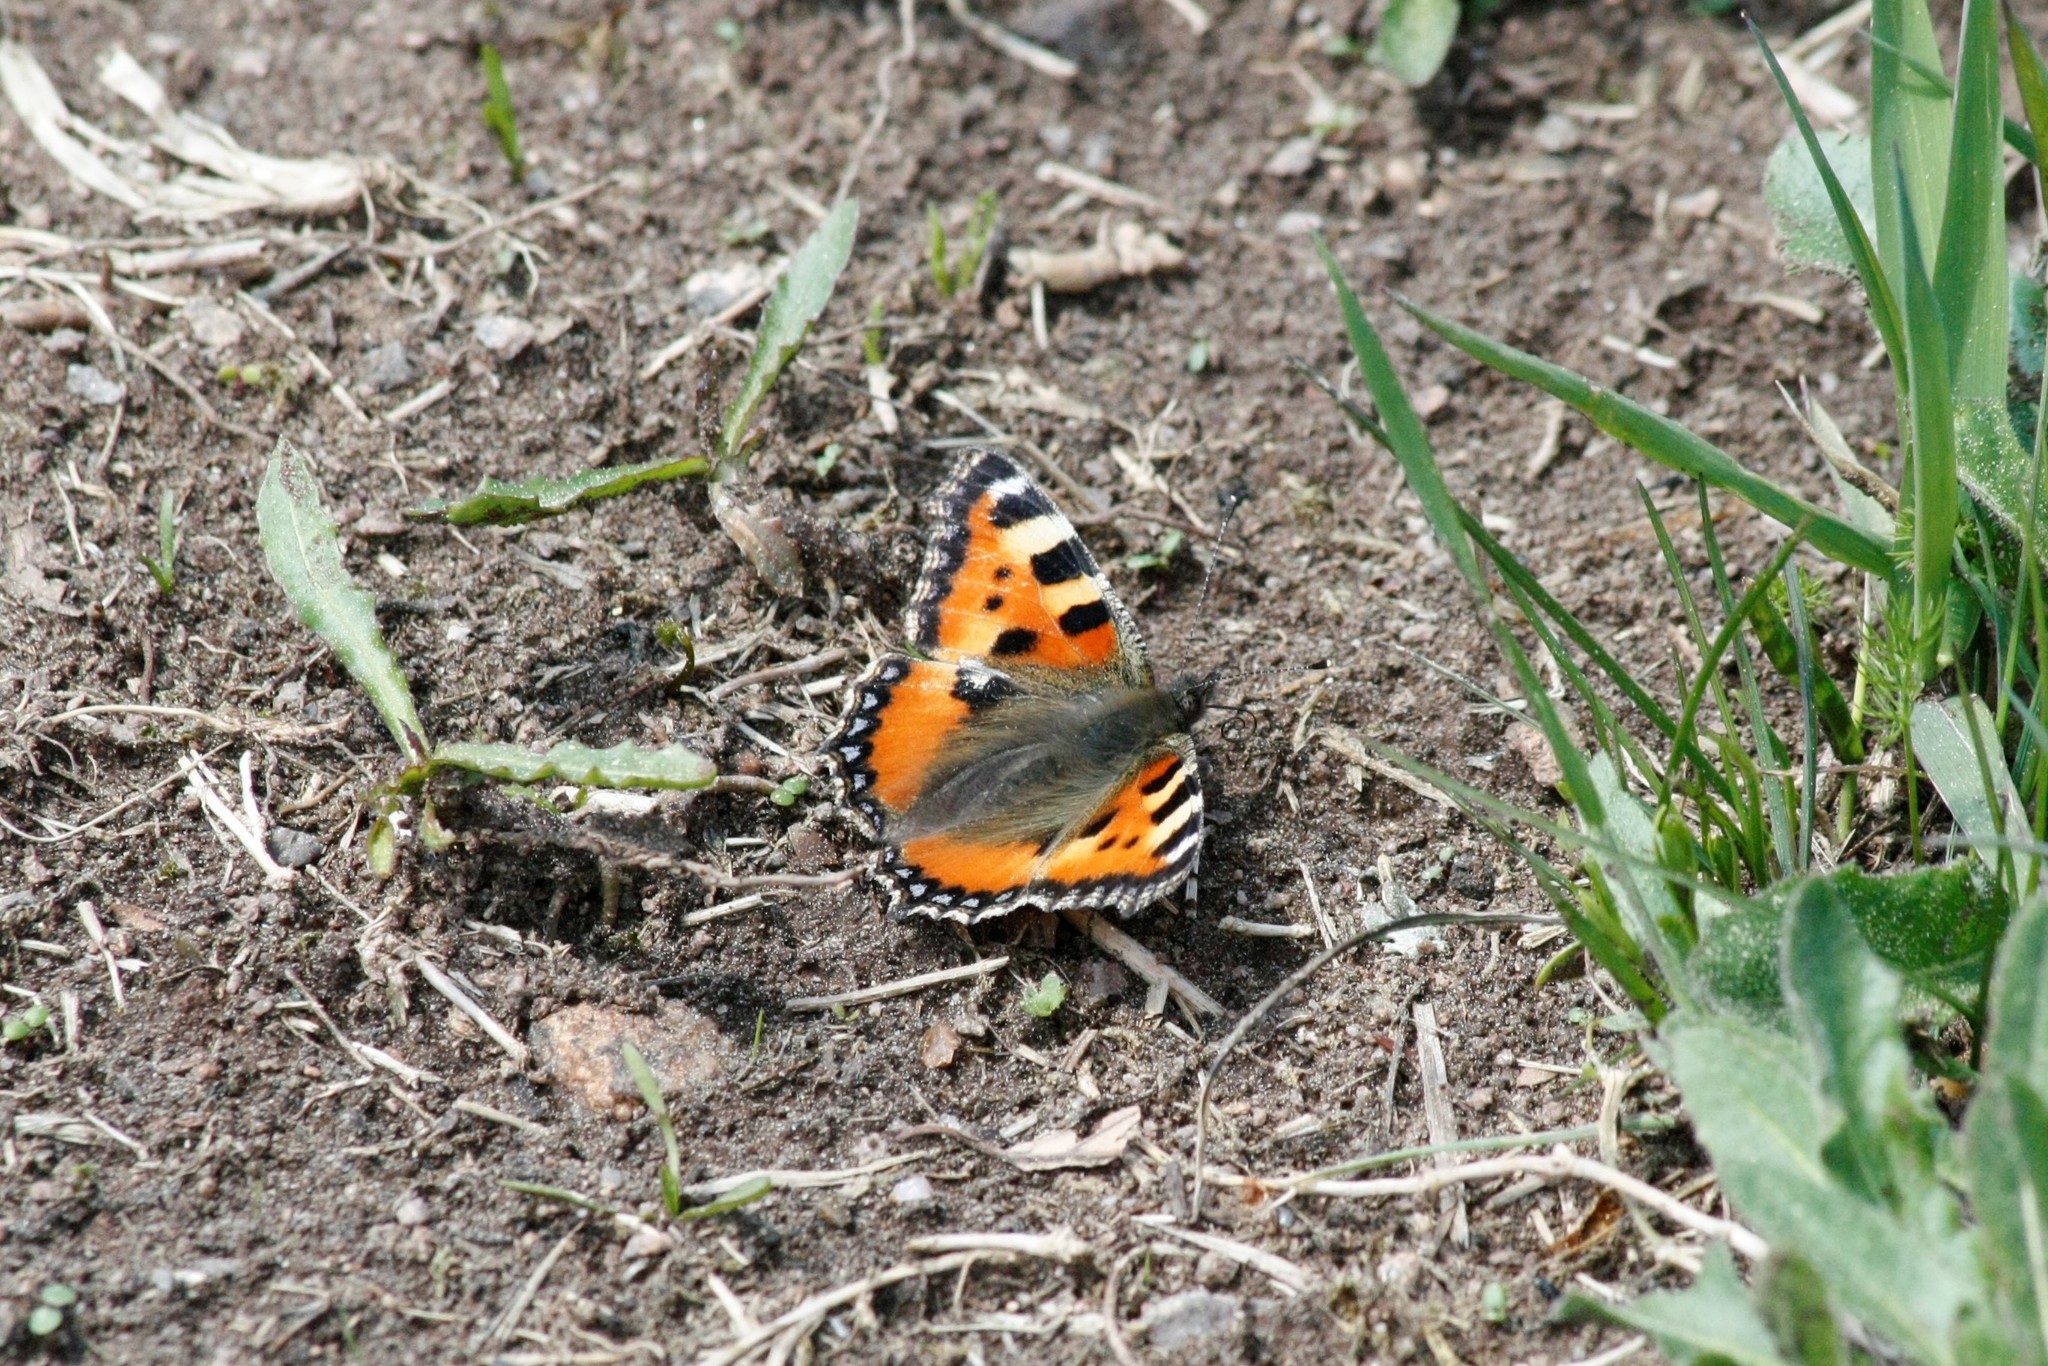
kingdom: Animalia
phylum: Arthropoda
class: Insecta
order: Lepidoptera
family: Nymphalidae
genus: Aglais
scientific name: Aglais urticae
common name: Small tortoiseshell
